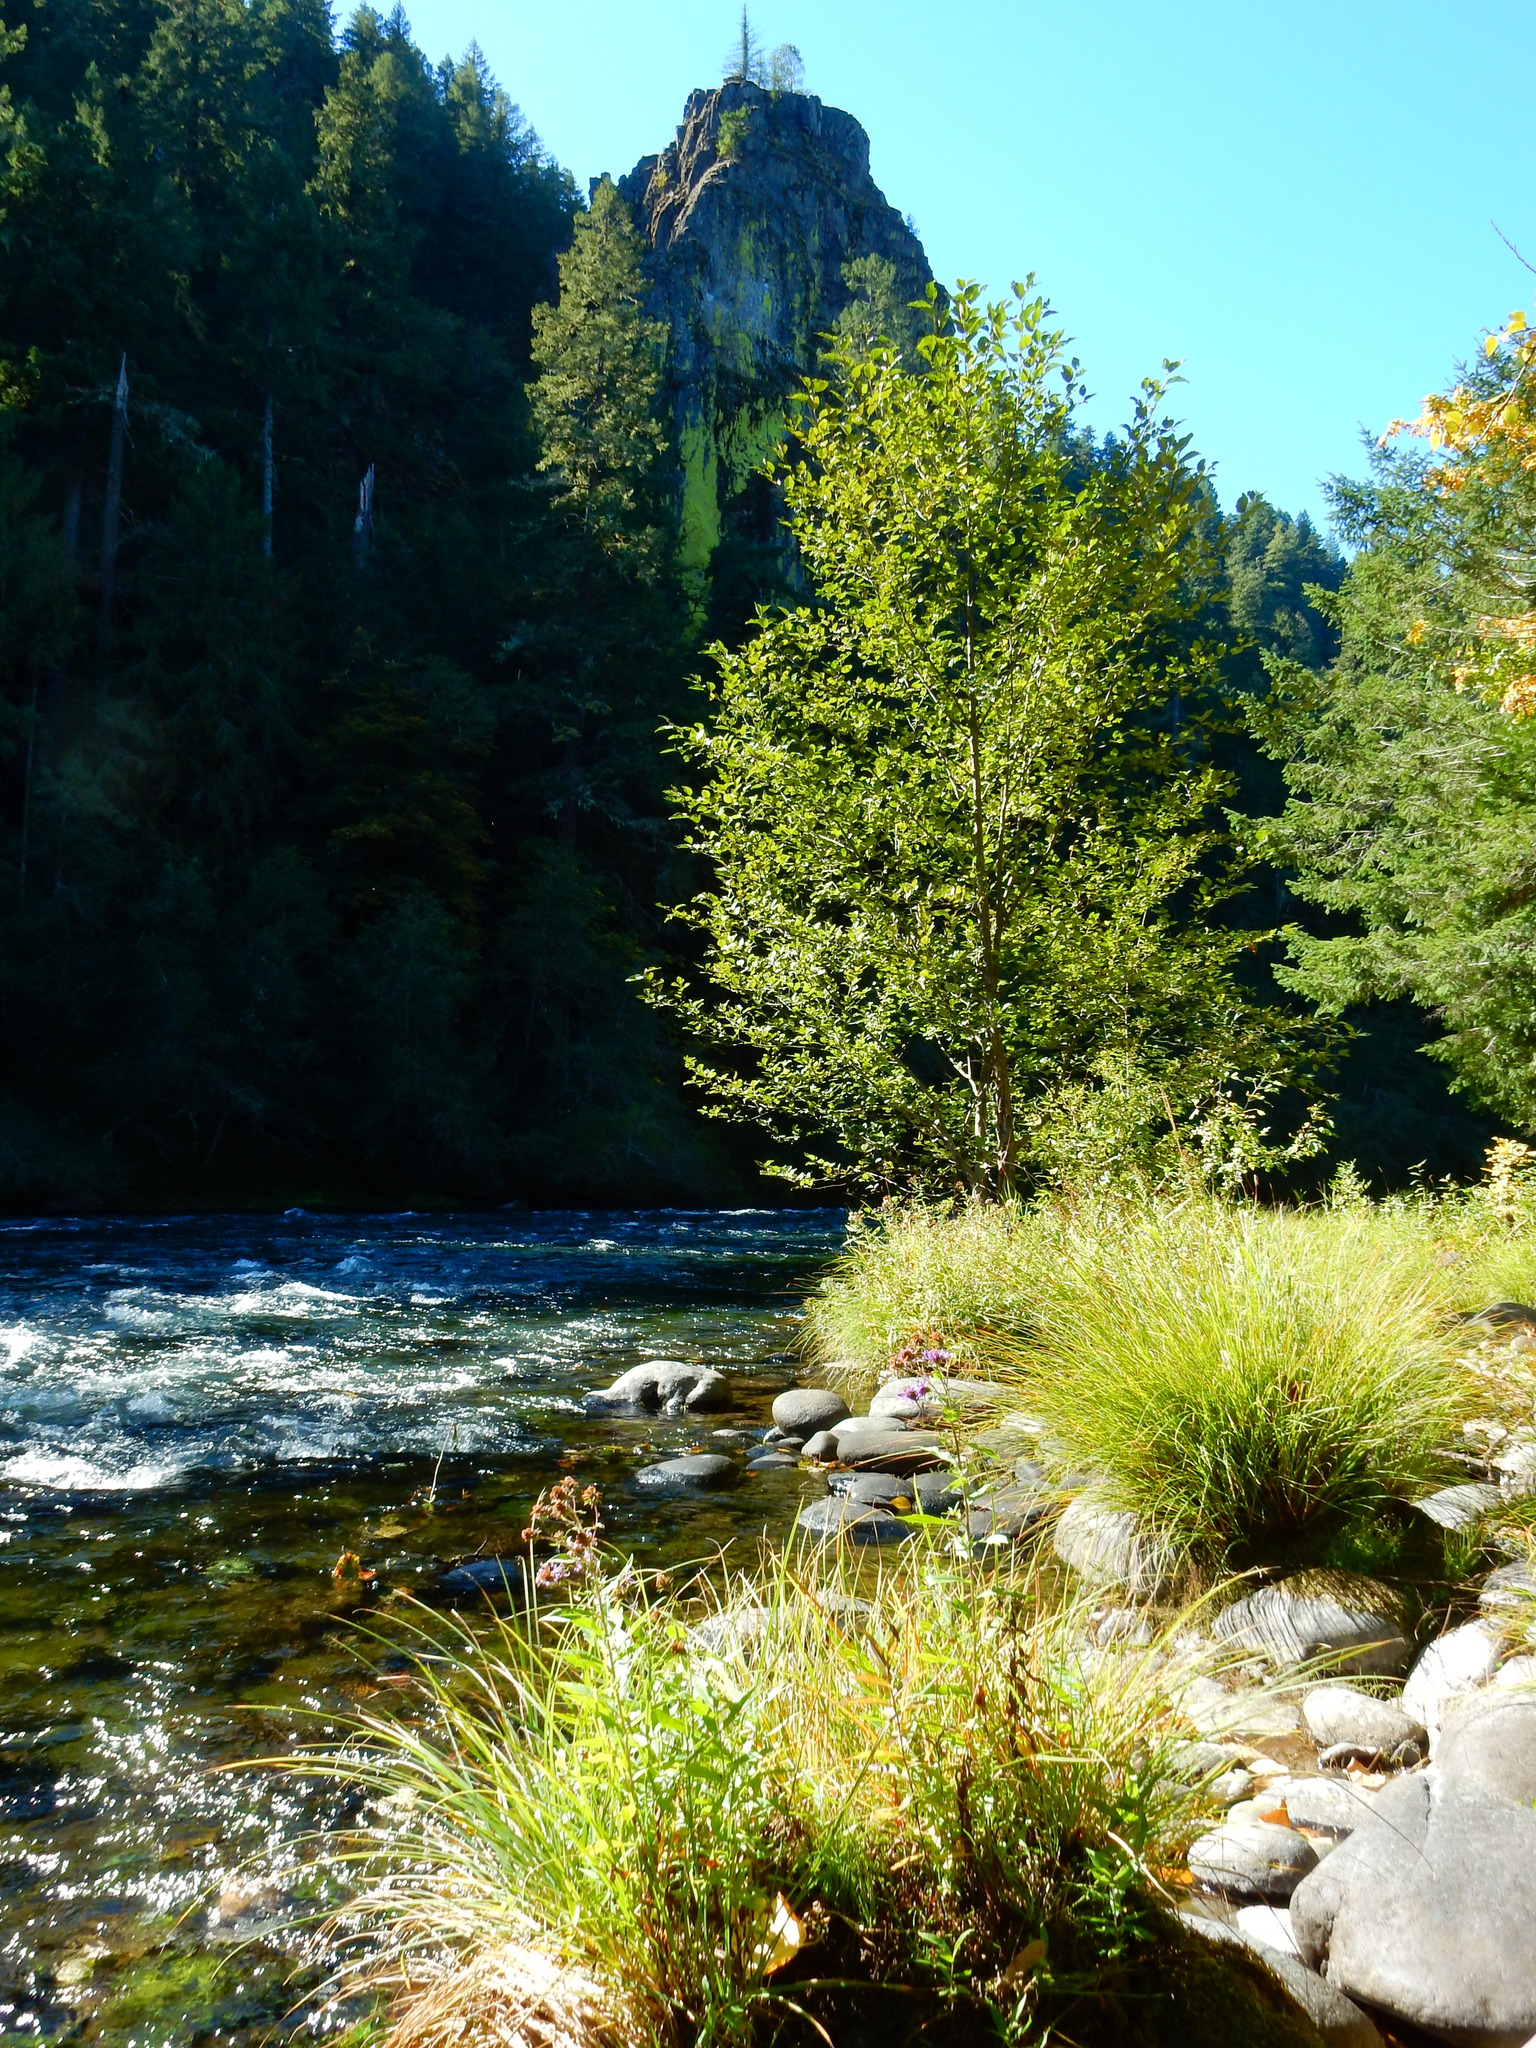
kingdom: Plantae
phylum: Tracheophyta
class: Magnoliopsida
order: Asterales
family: Asteraceae
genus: Canadanthus
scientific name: Canadanthus modestus
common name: Great northern aster
